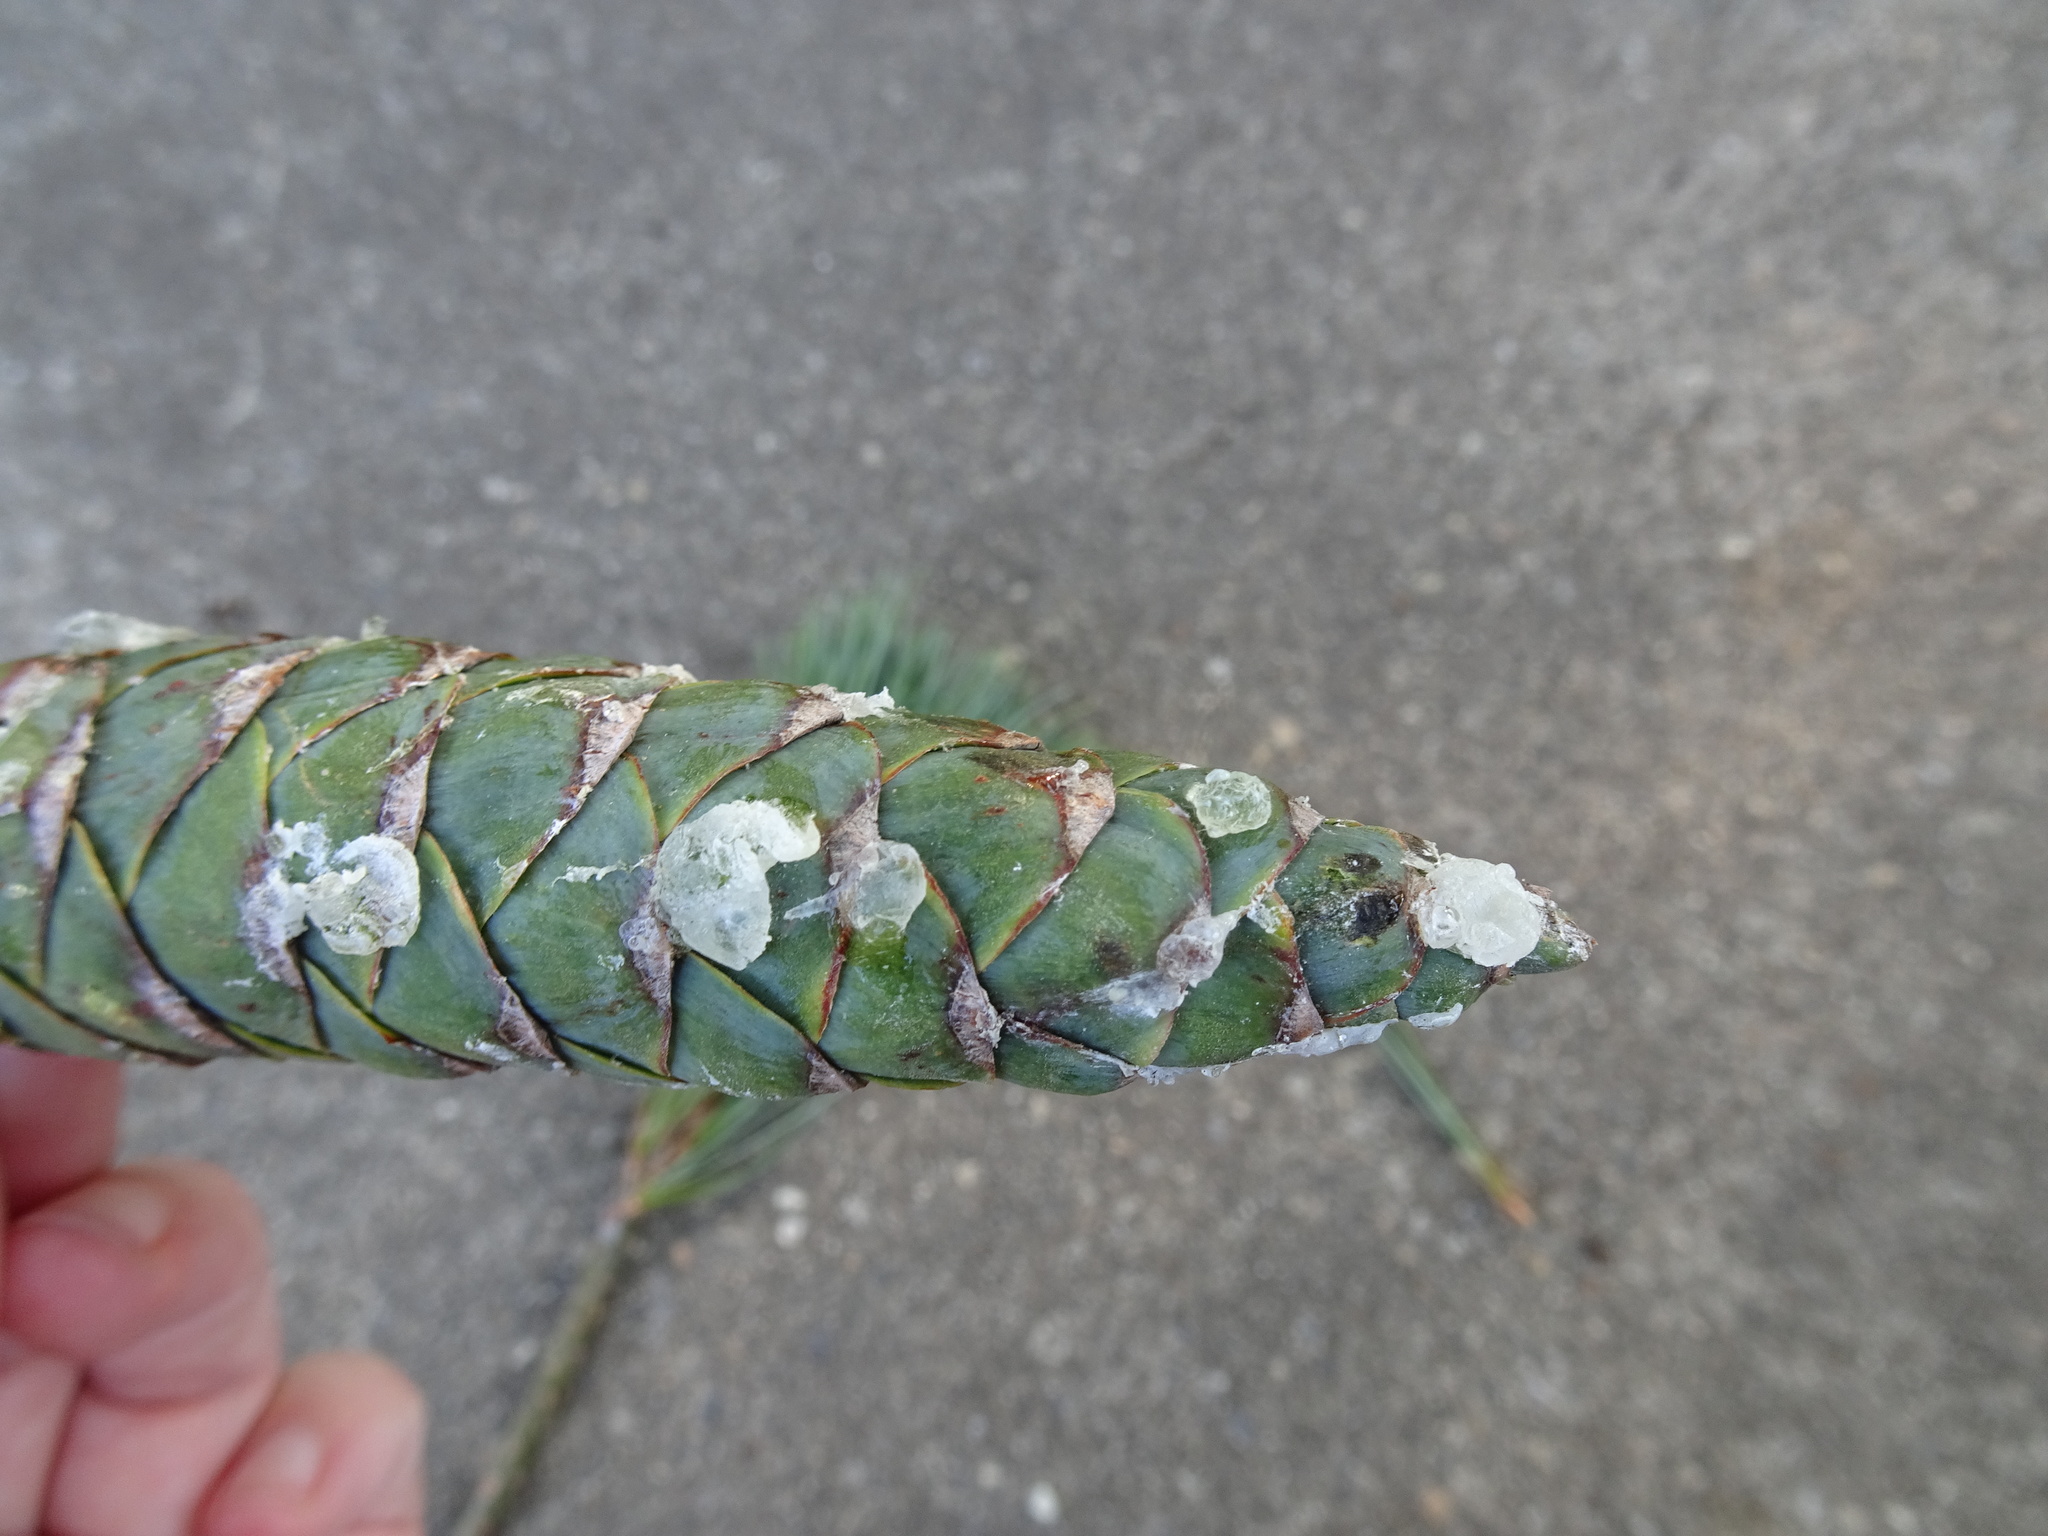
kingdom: Plantae
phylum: Tracheophyta
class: Pinopsida
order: Pinales
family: Pinaceae
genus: Pinus
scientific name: Pinus strobus
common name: Weymouth pine
